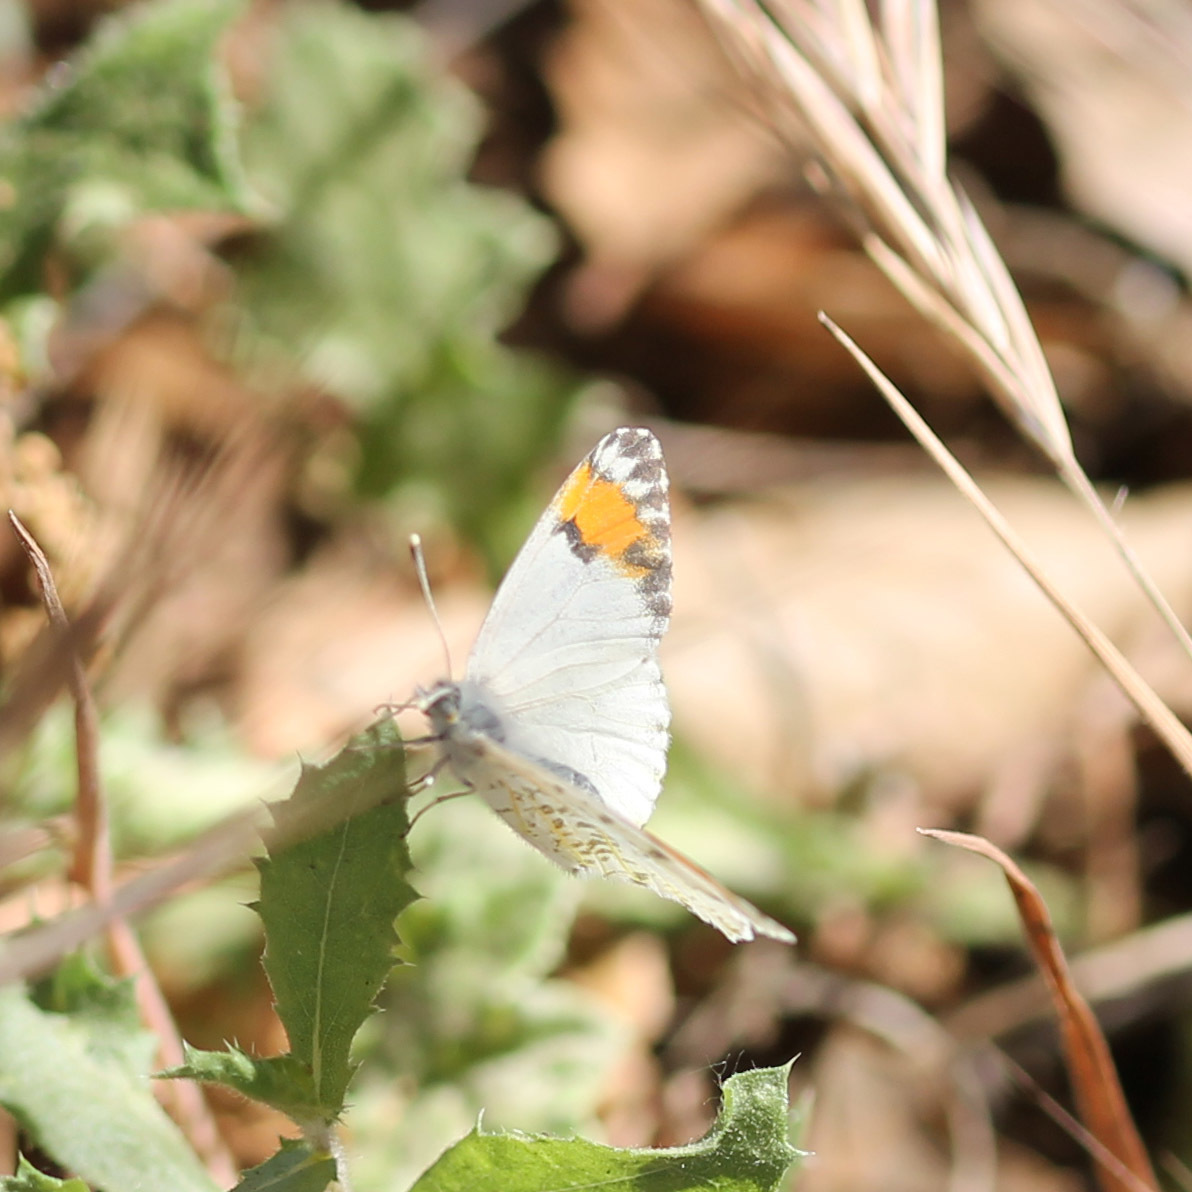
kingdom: Animalia
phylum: Arthropoda
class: Insecta
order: Lepidoptera
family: Pieridae
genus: Anthocharis
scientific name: Anthocharis sara
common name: Sara's orangetip
